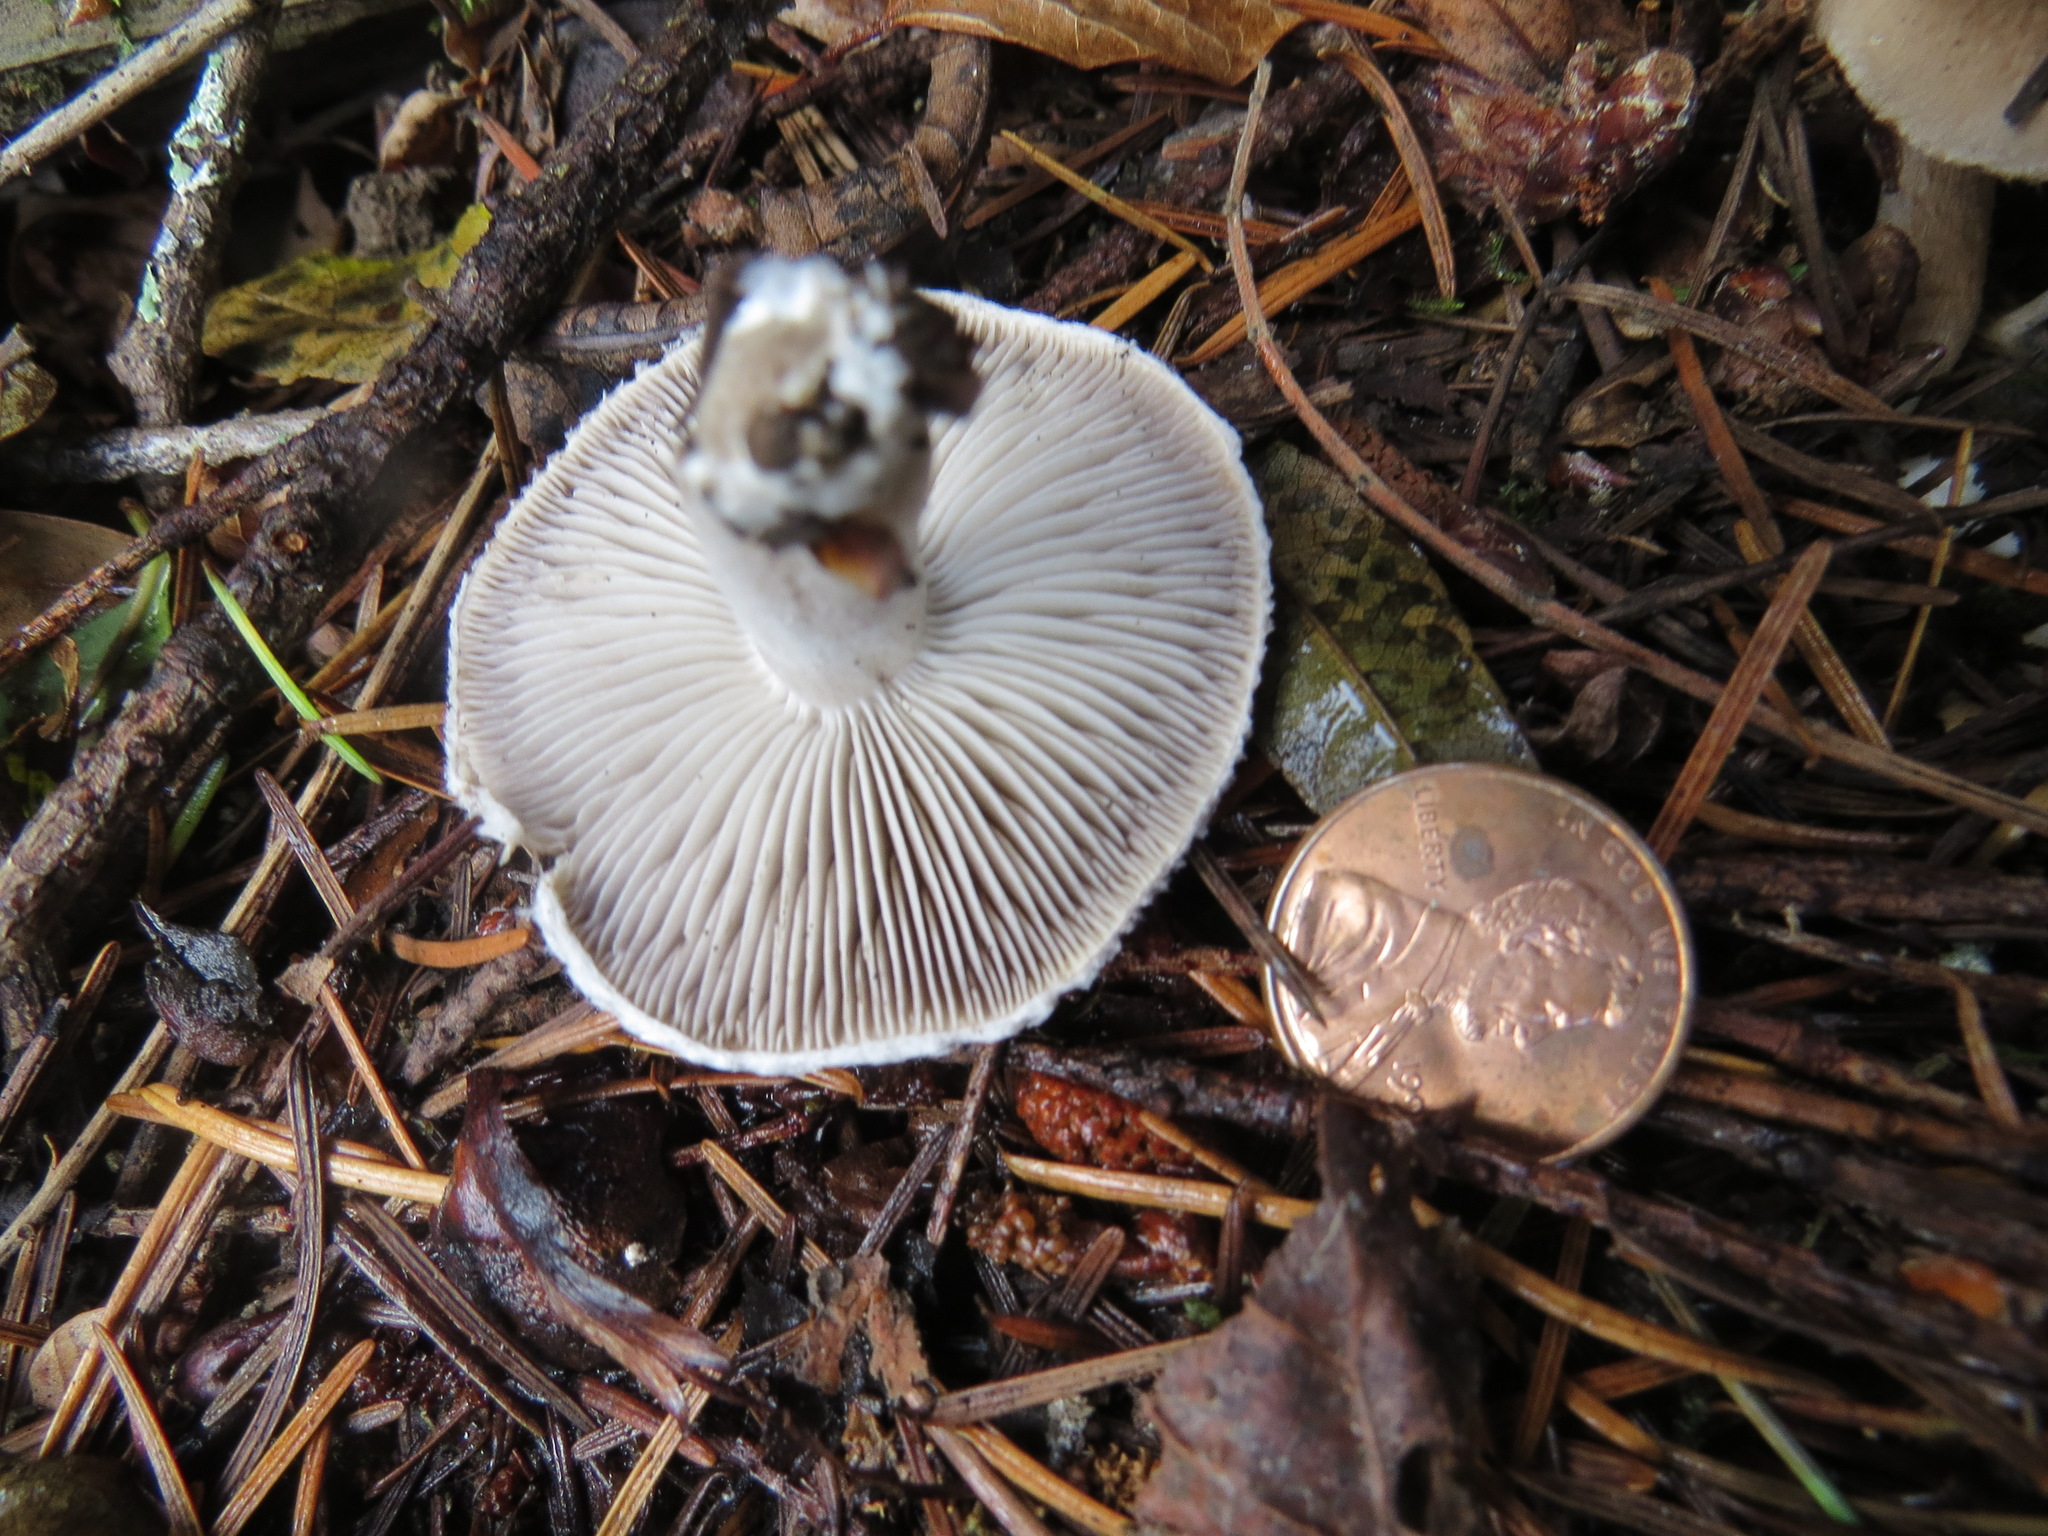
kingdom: Fungi
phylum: Basidiomycota
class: Agaricomycetes
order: Agaricales
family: Tricholomataceae
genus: Tricholoma
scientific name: Tricholoma terreum
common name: Grey knight
